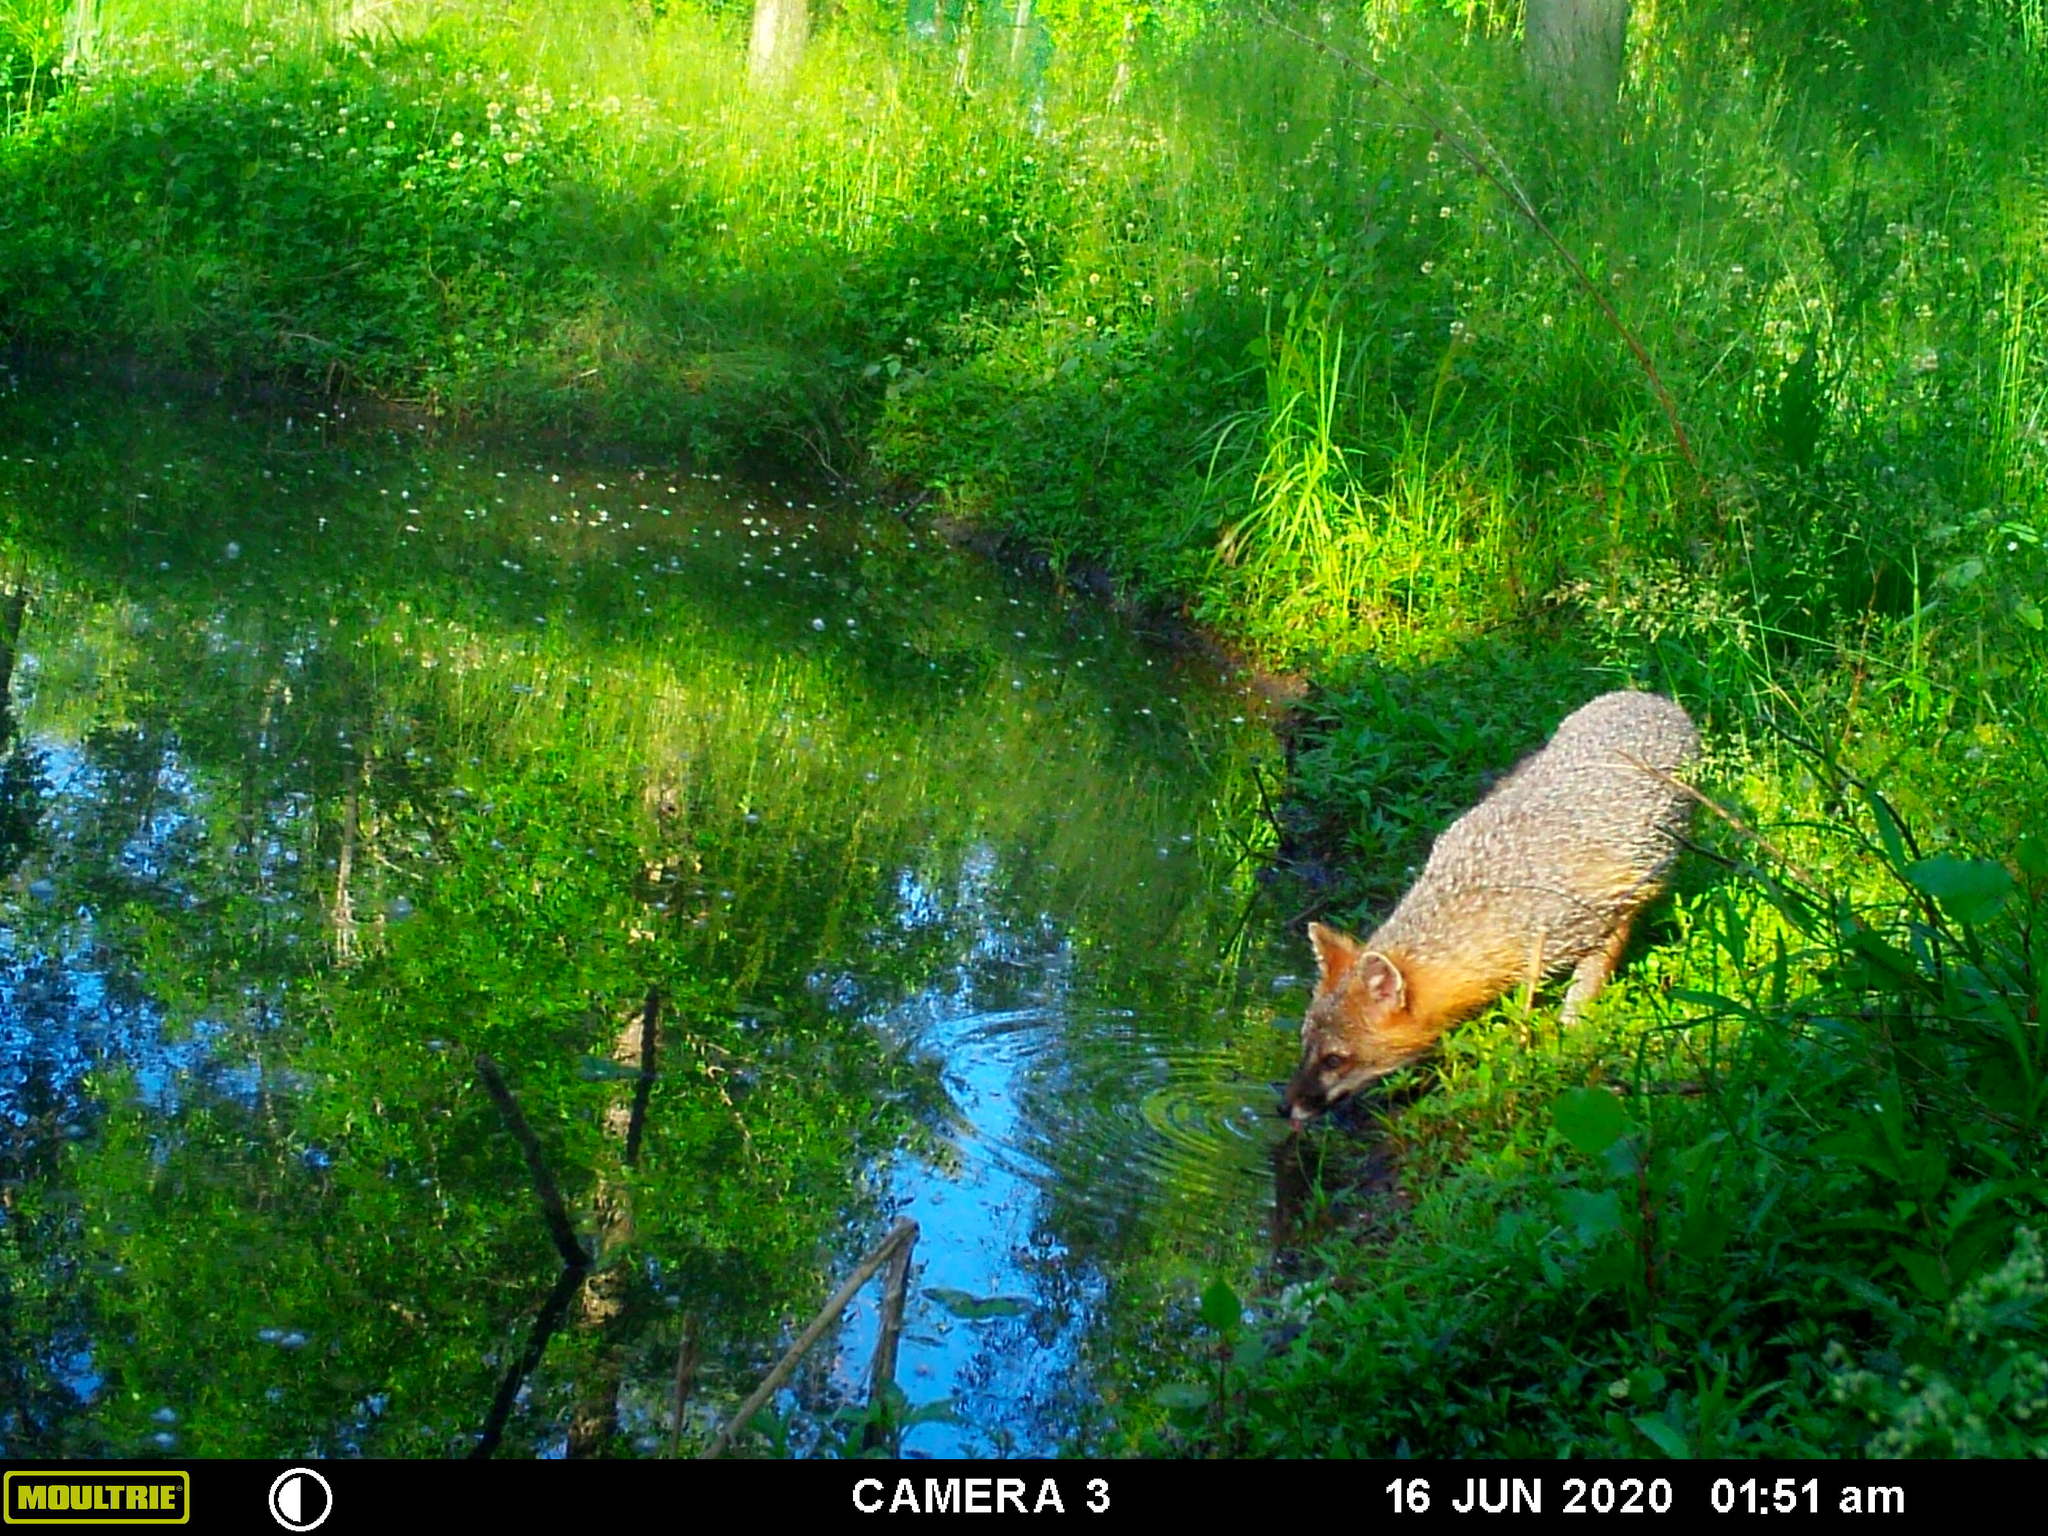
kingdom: Animalia
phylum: Chordata
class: Mammalia
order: Carnivora
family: Canidae
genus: Urocyon
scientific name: Urocyon cinereoargenteus
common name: Gray fox
